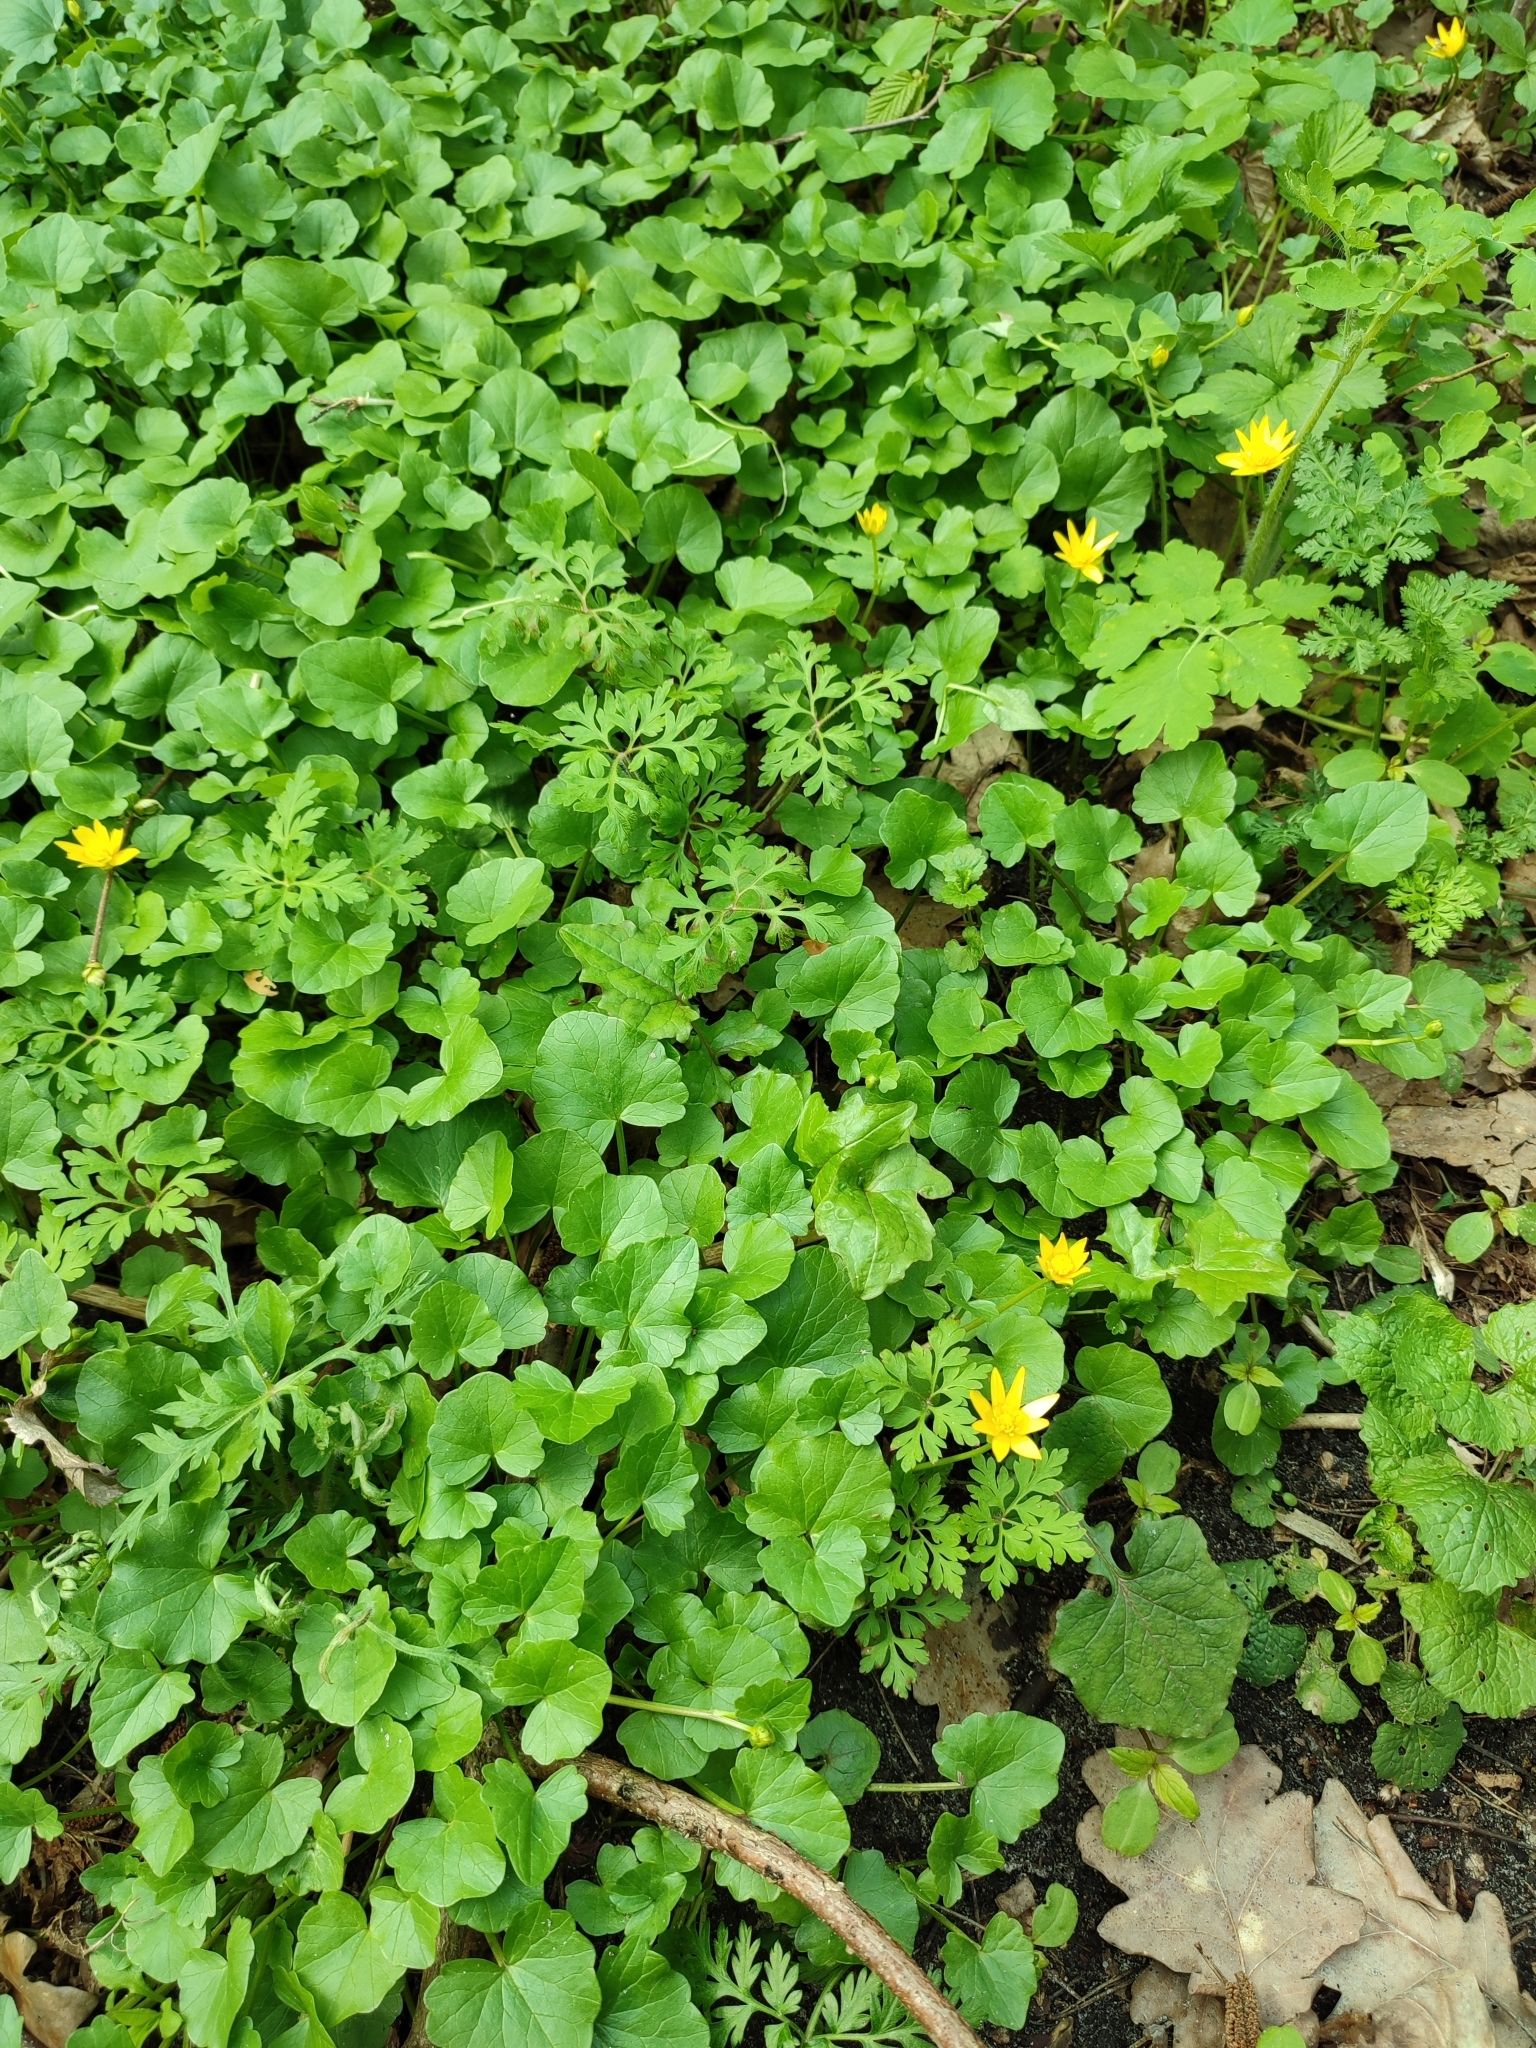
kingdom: Plantae
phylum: Tracheophyta
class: Magnoliopsida
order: Ranunculales
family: Ranunculaceae
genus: Ficaria
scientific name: Ficaria verna
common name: Lesser celandine
